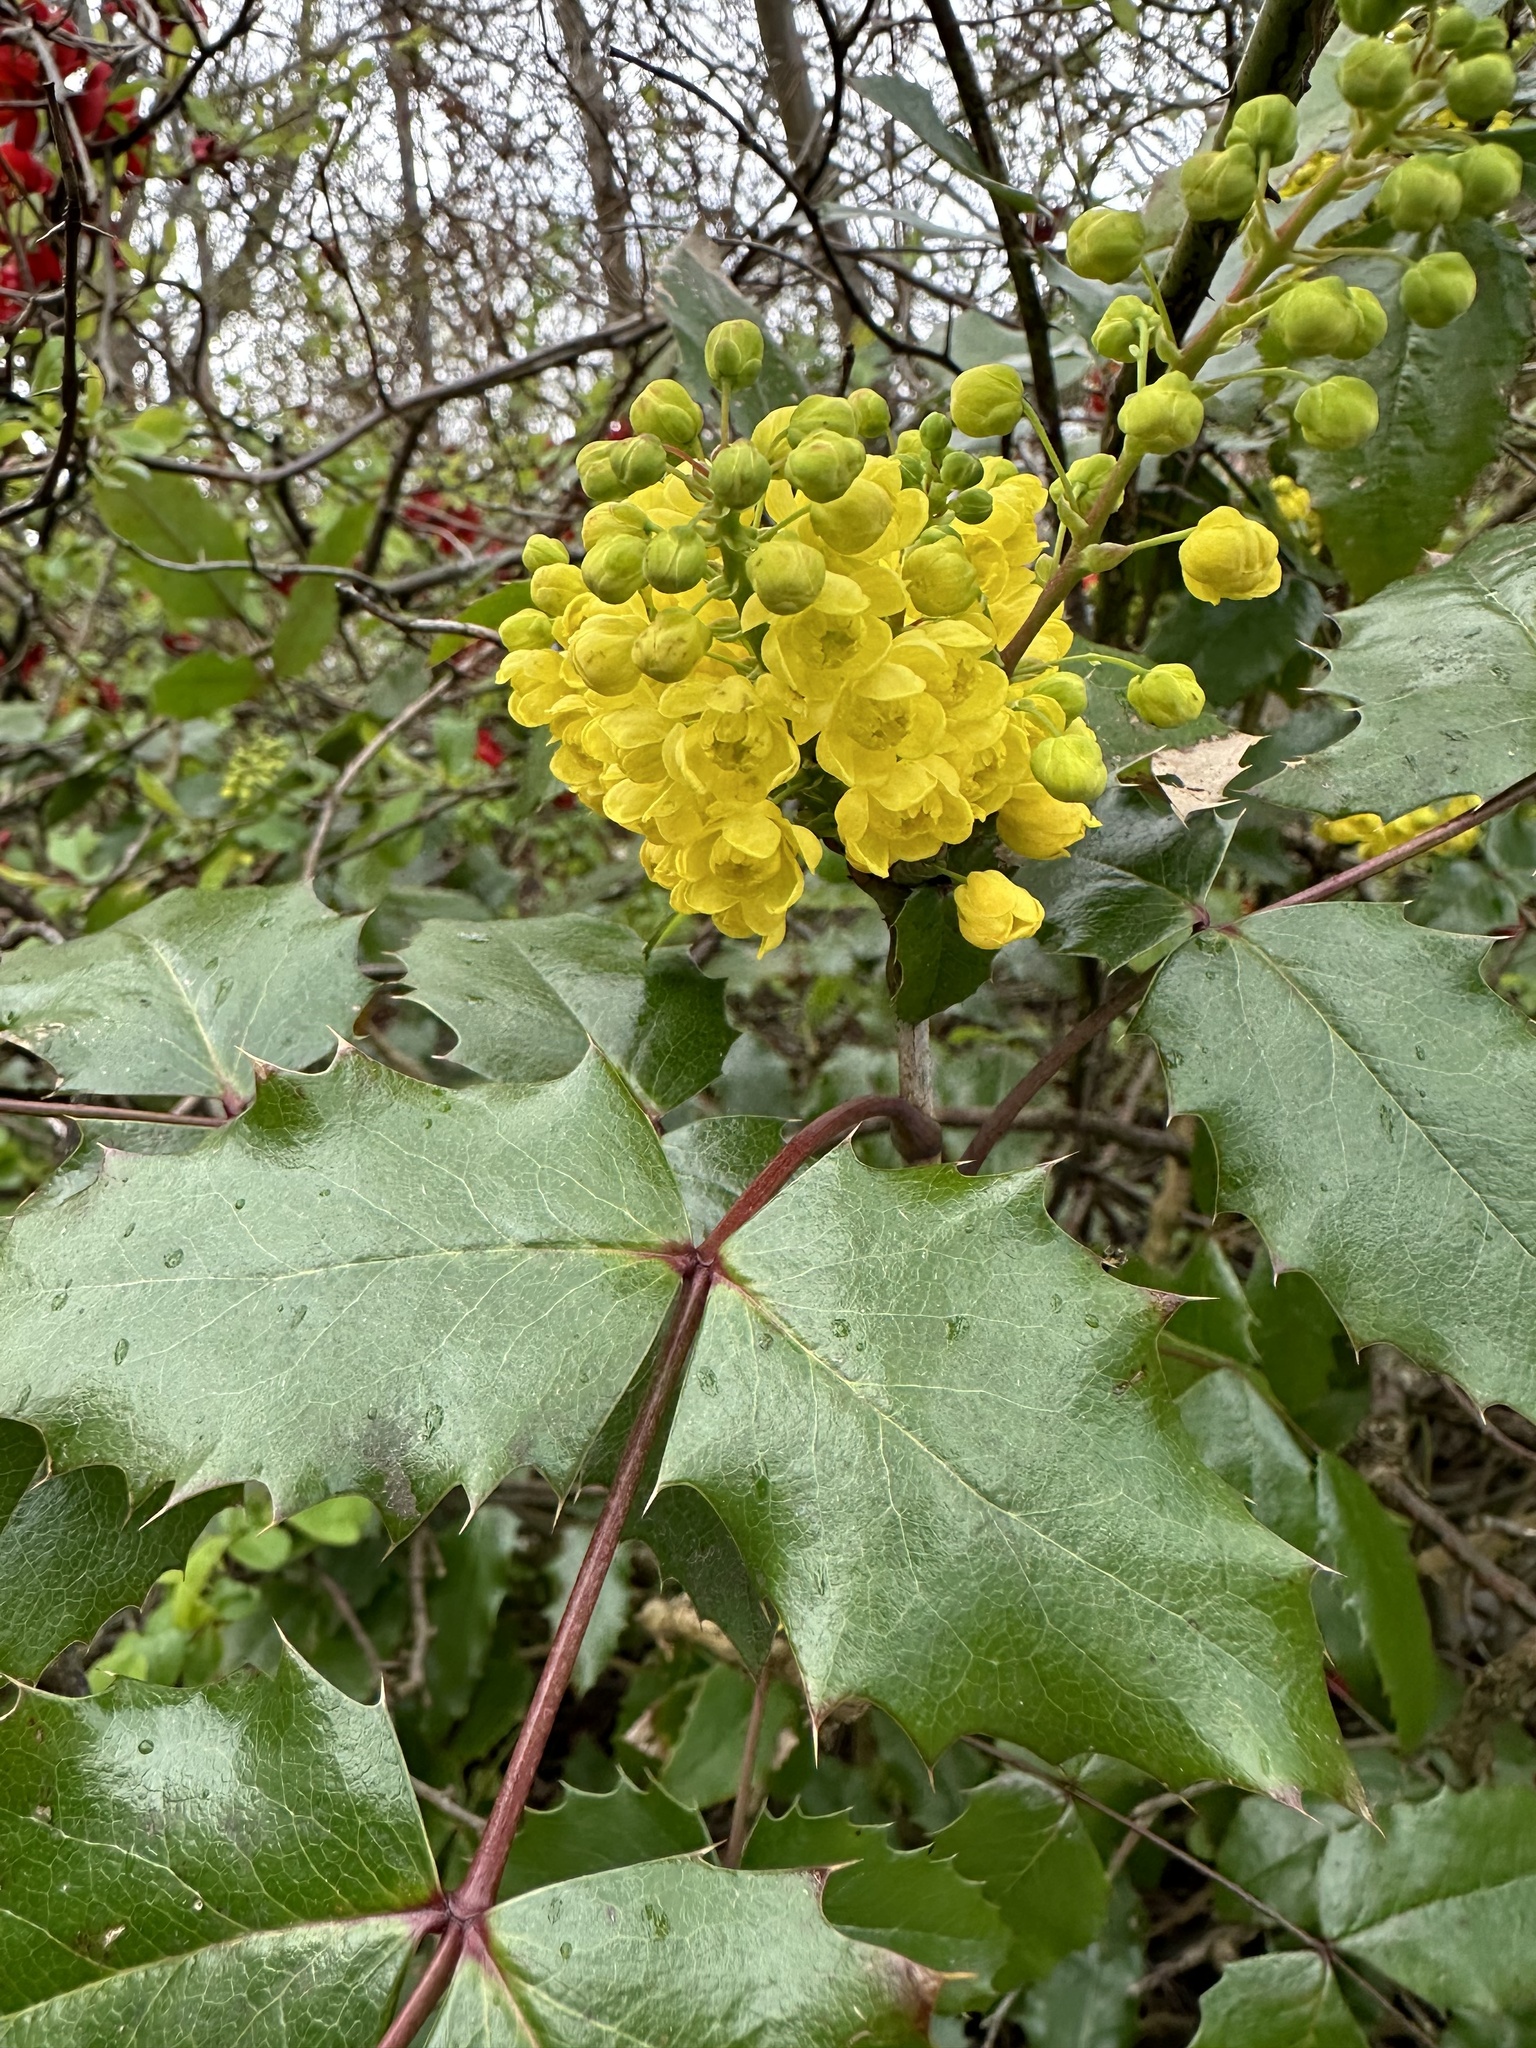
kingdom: Plantae
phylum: Tracheophyta
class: Magnoliopsida
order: Ranunculales
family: Berberidaceae
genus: Mahonia
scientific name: Mahonia aquifolium
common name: Oregon-grape
